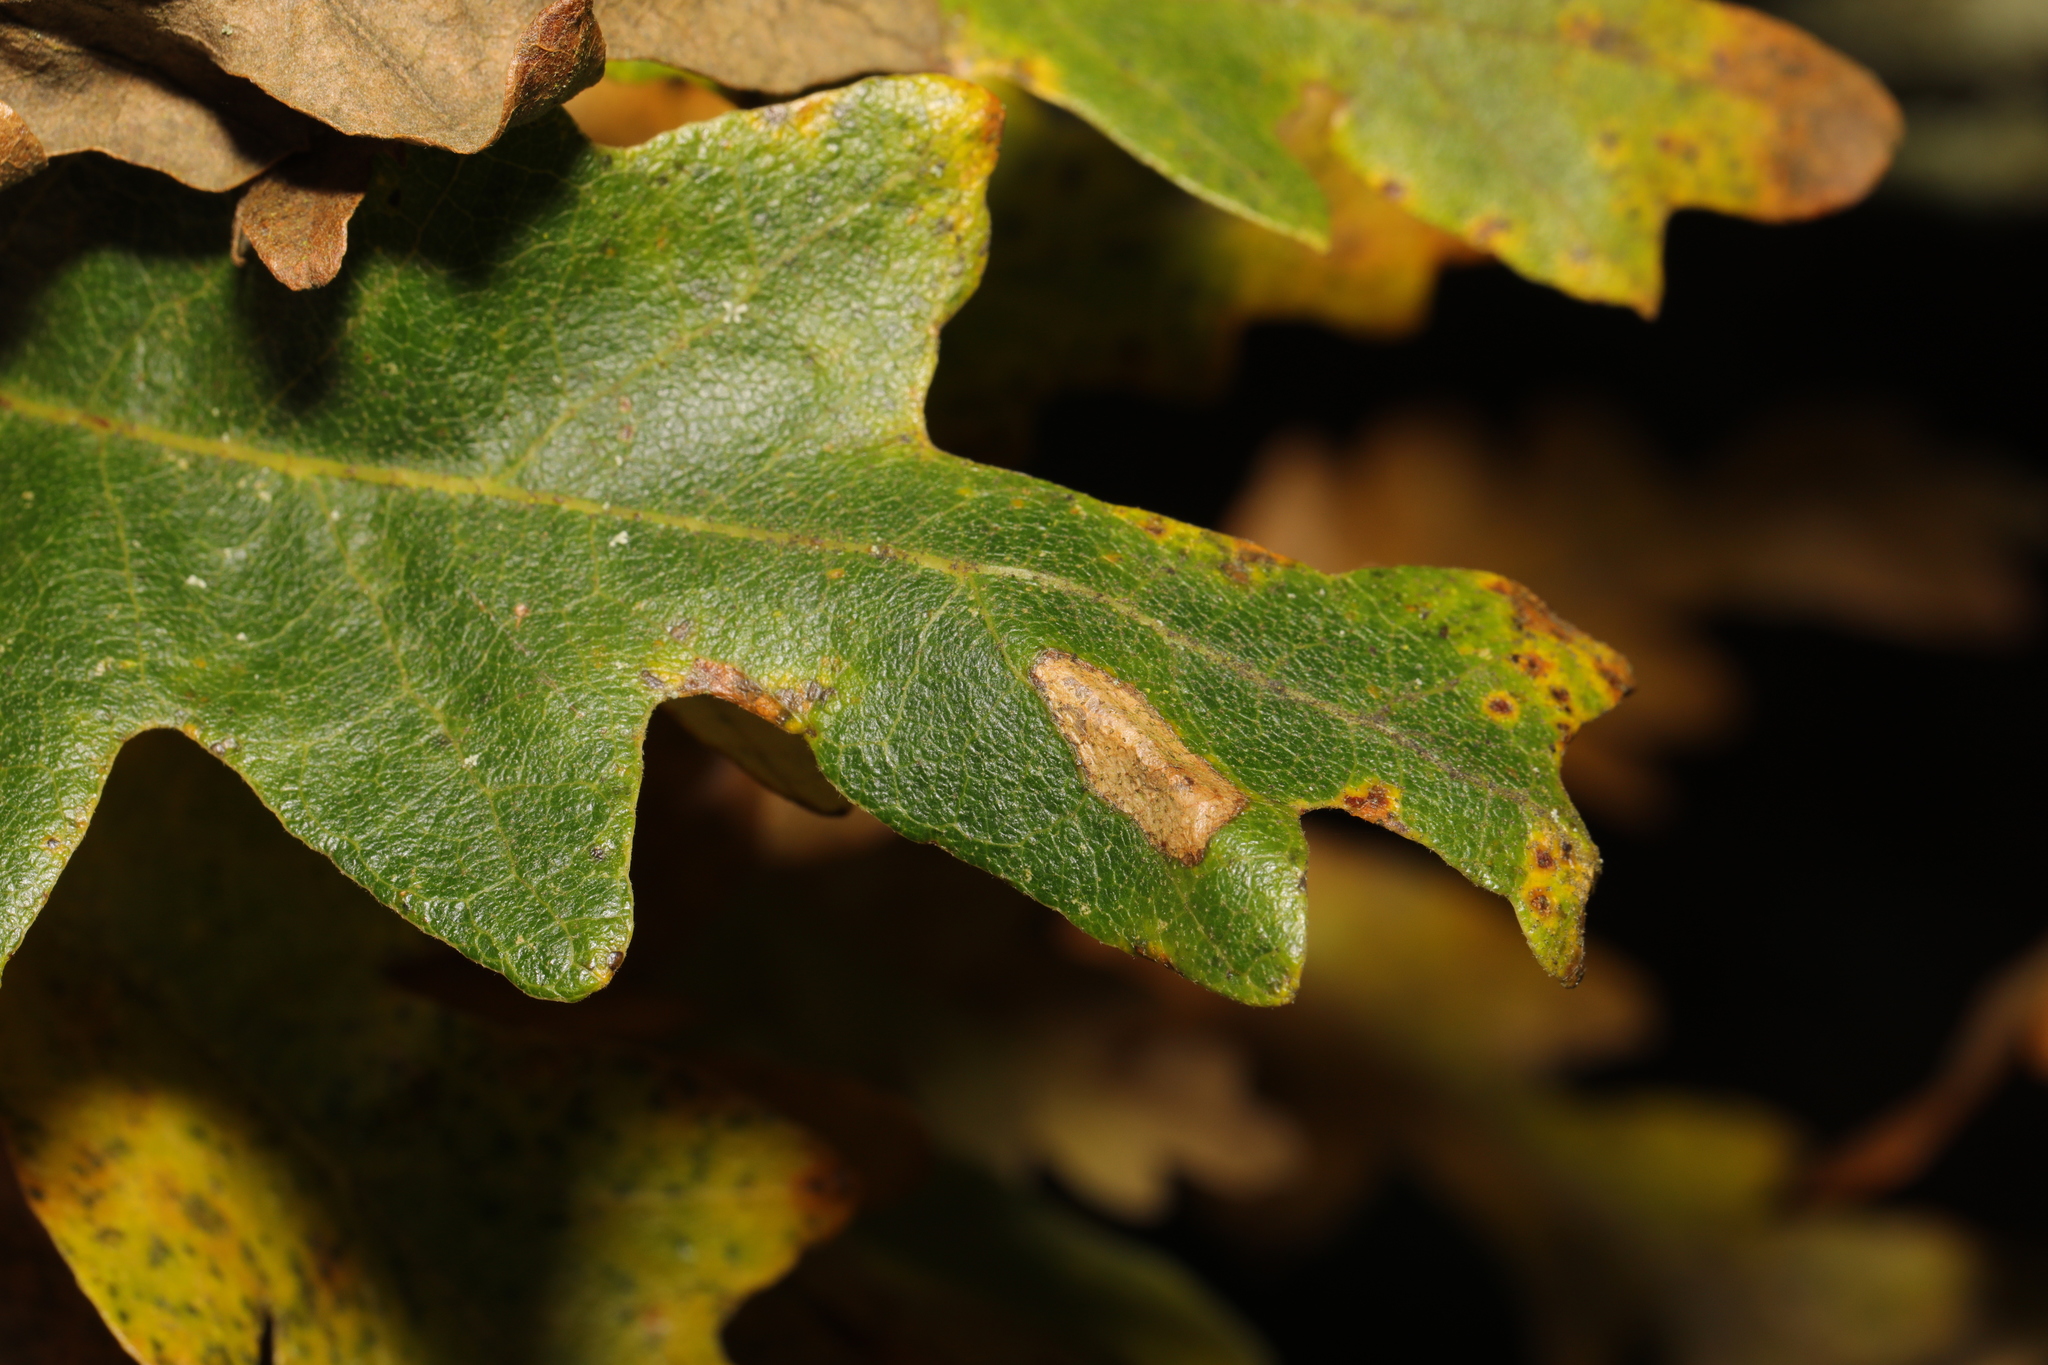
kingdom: Animalia
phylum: Arthropoda
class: Insecta
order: Lepidoptera
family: Gracillariidae
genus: Phyllonorycter
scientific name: Phyllonorycter messaniella
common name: Garden midget
